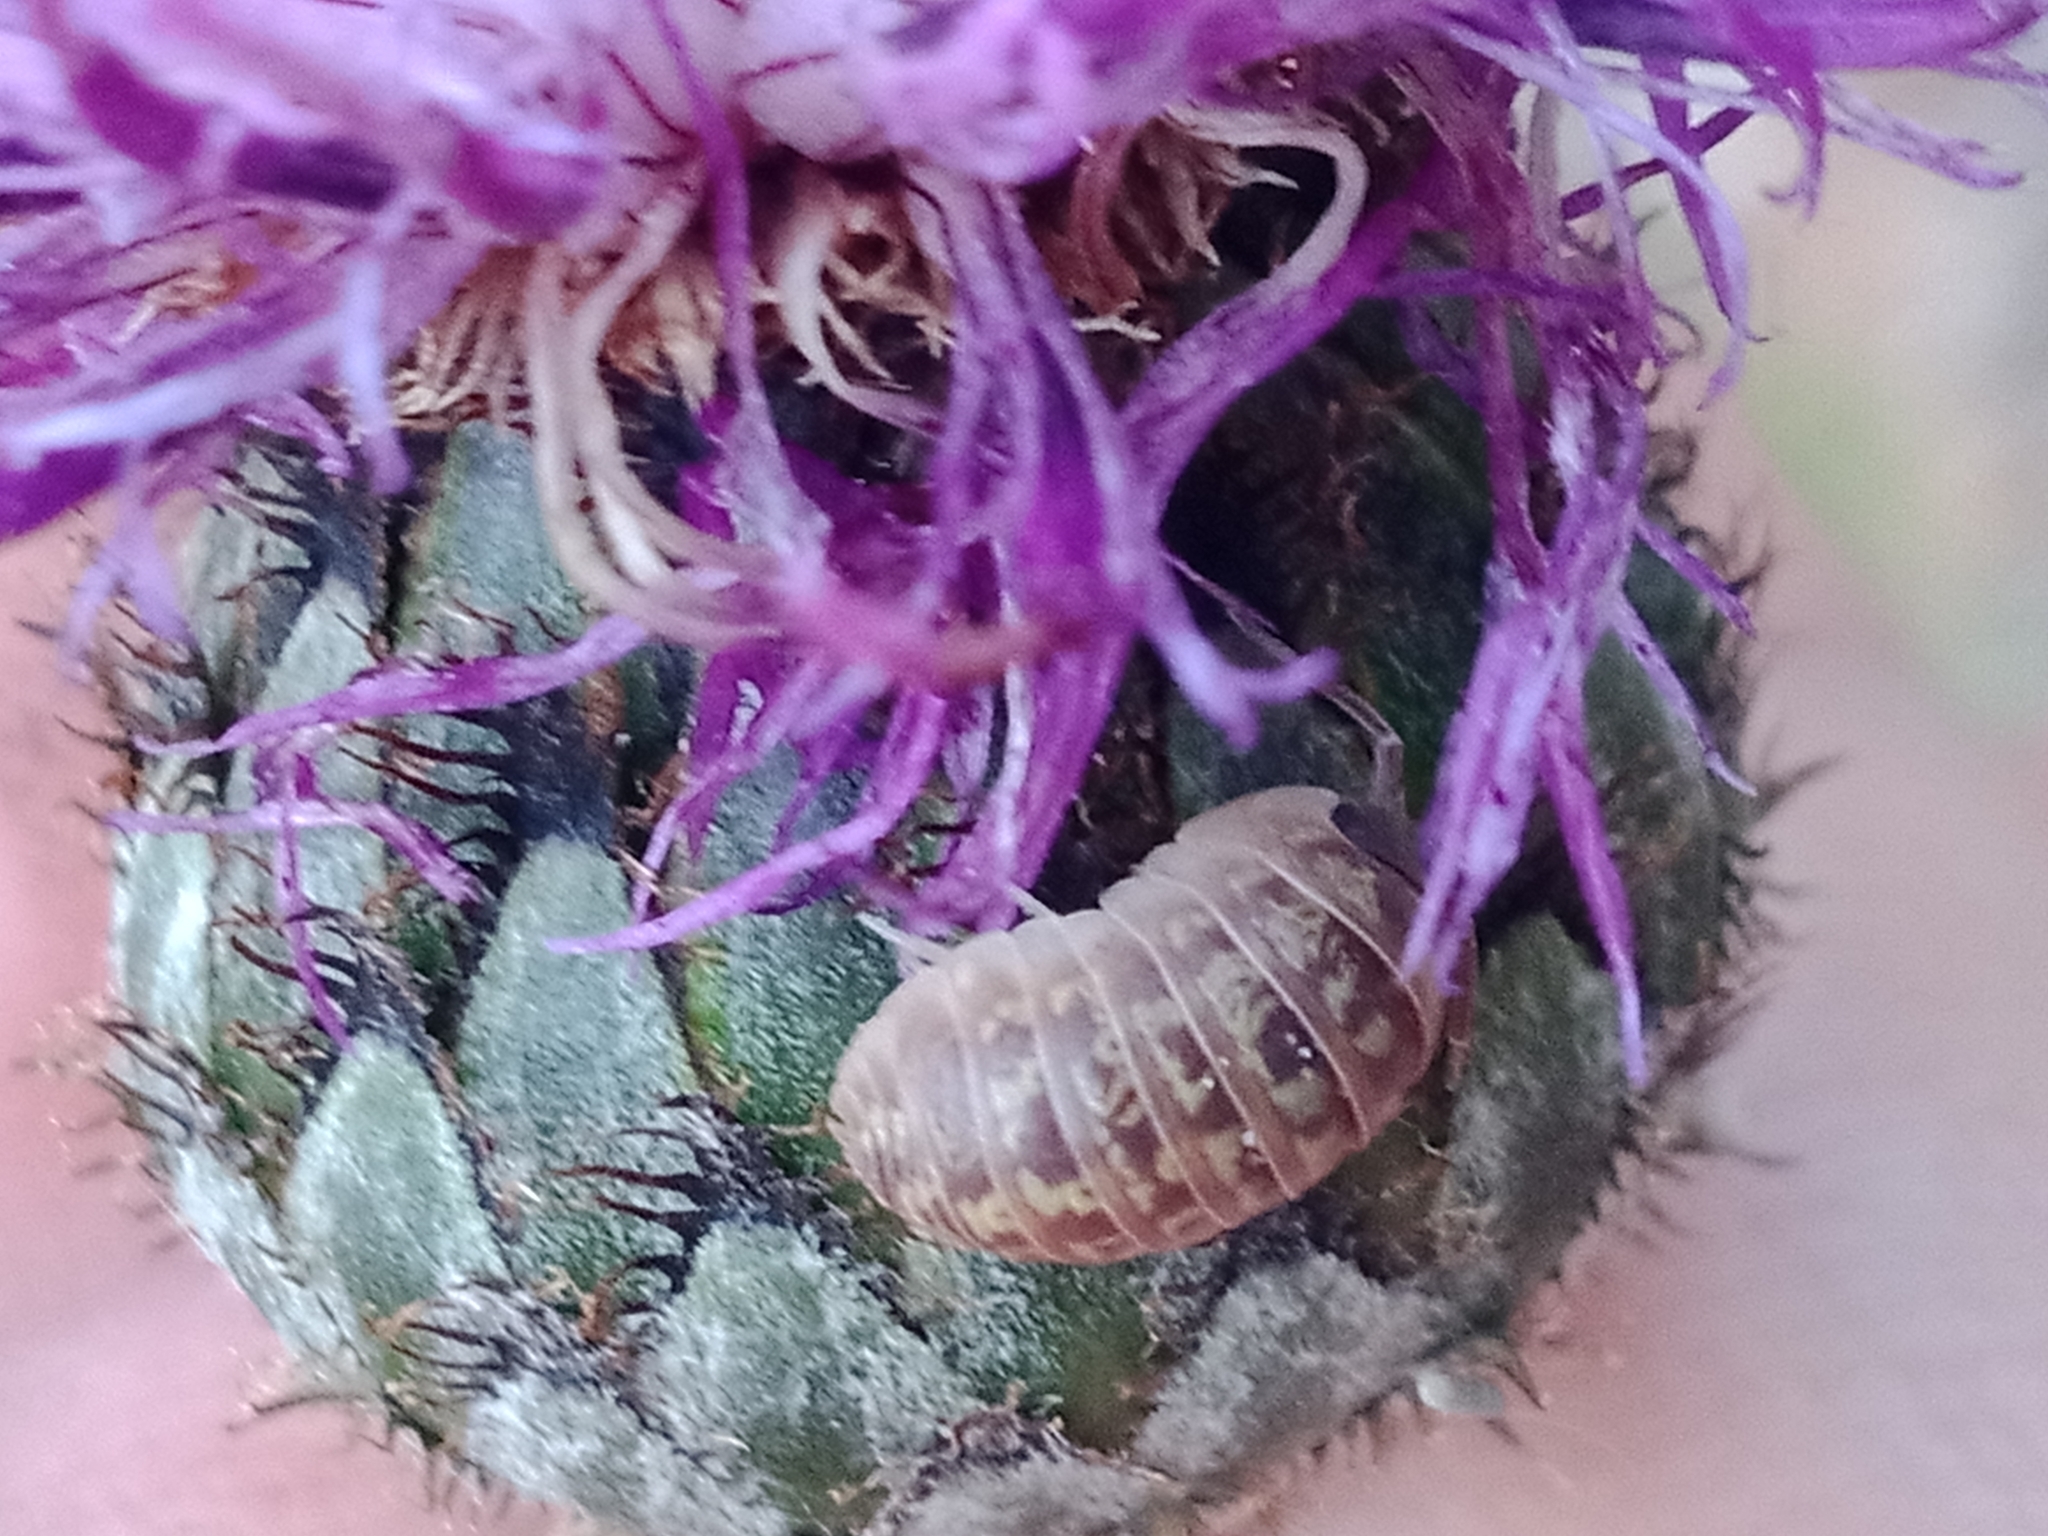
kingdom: Plantae
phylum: Tracheophyta
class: Magnoliopsida
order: Asterales
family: Asteraceae
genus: Centaurea
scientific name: Centaurea scabiosa
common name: Greater knapweed
